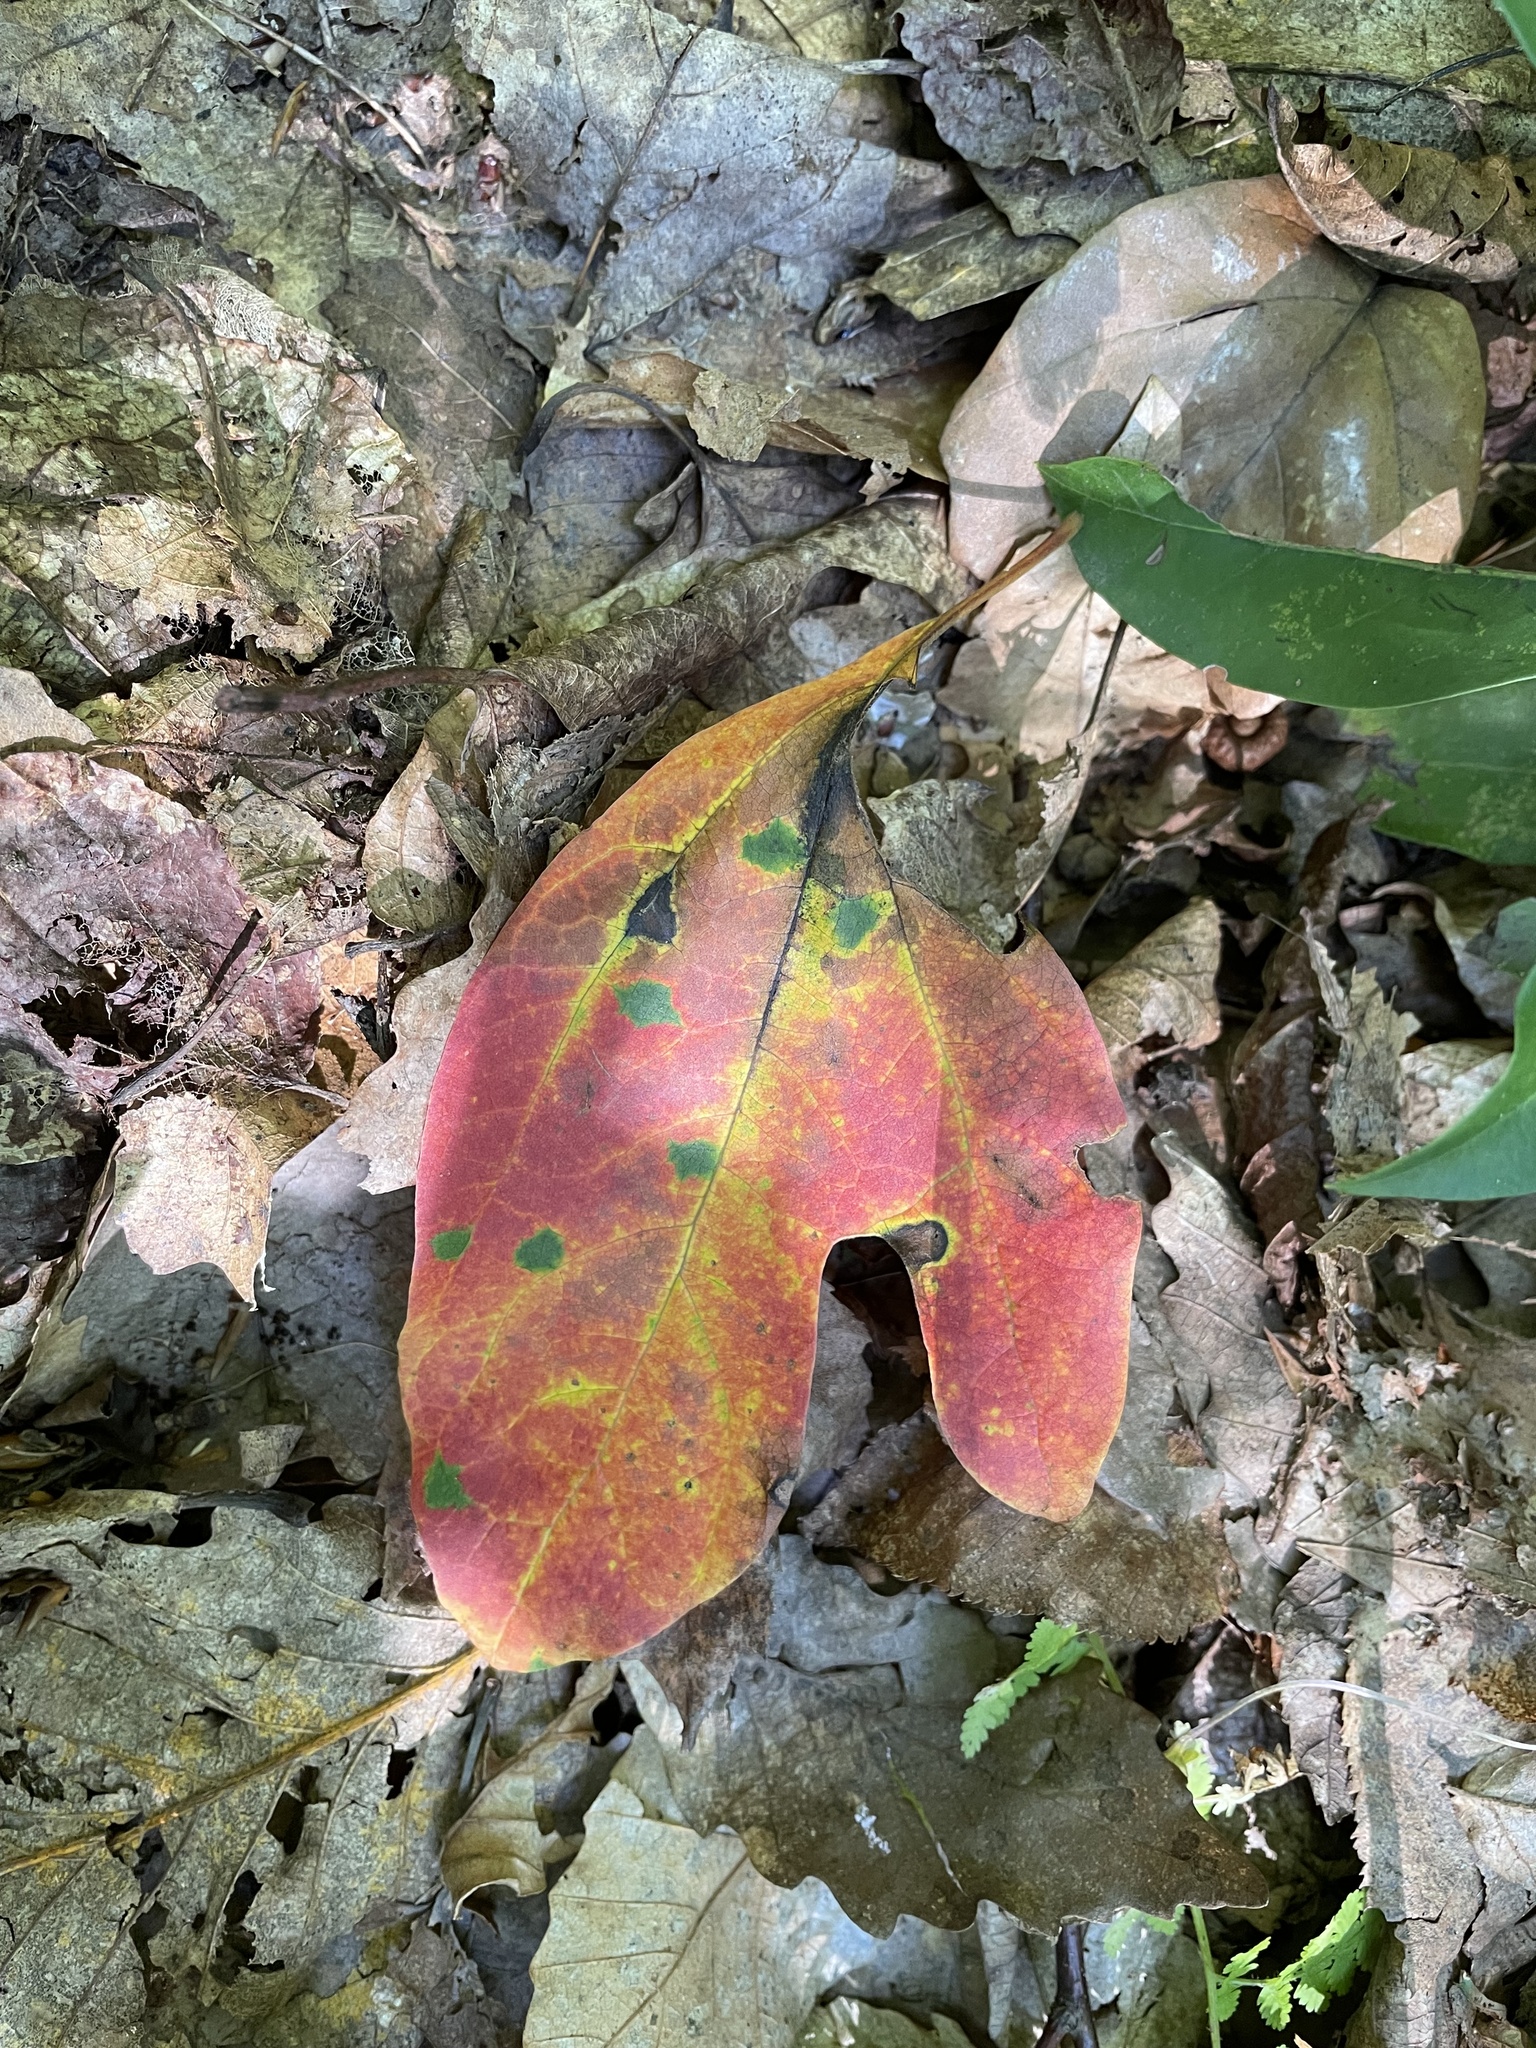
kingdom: Plantae
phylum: Tracheophyta
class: Magnoliopsida
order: Laurales
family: Lauraceae
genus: Sassafras
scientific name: Sassafras albidum
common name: Sassafras
